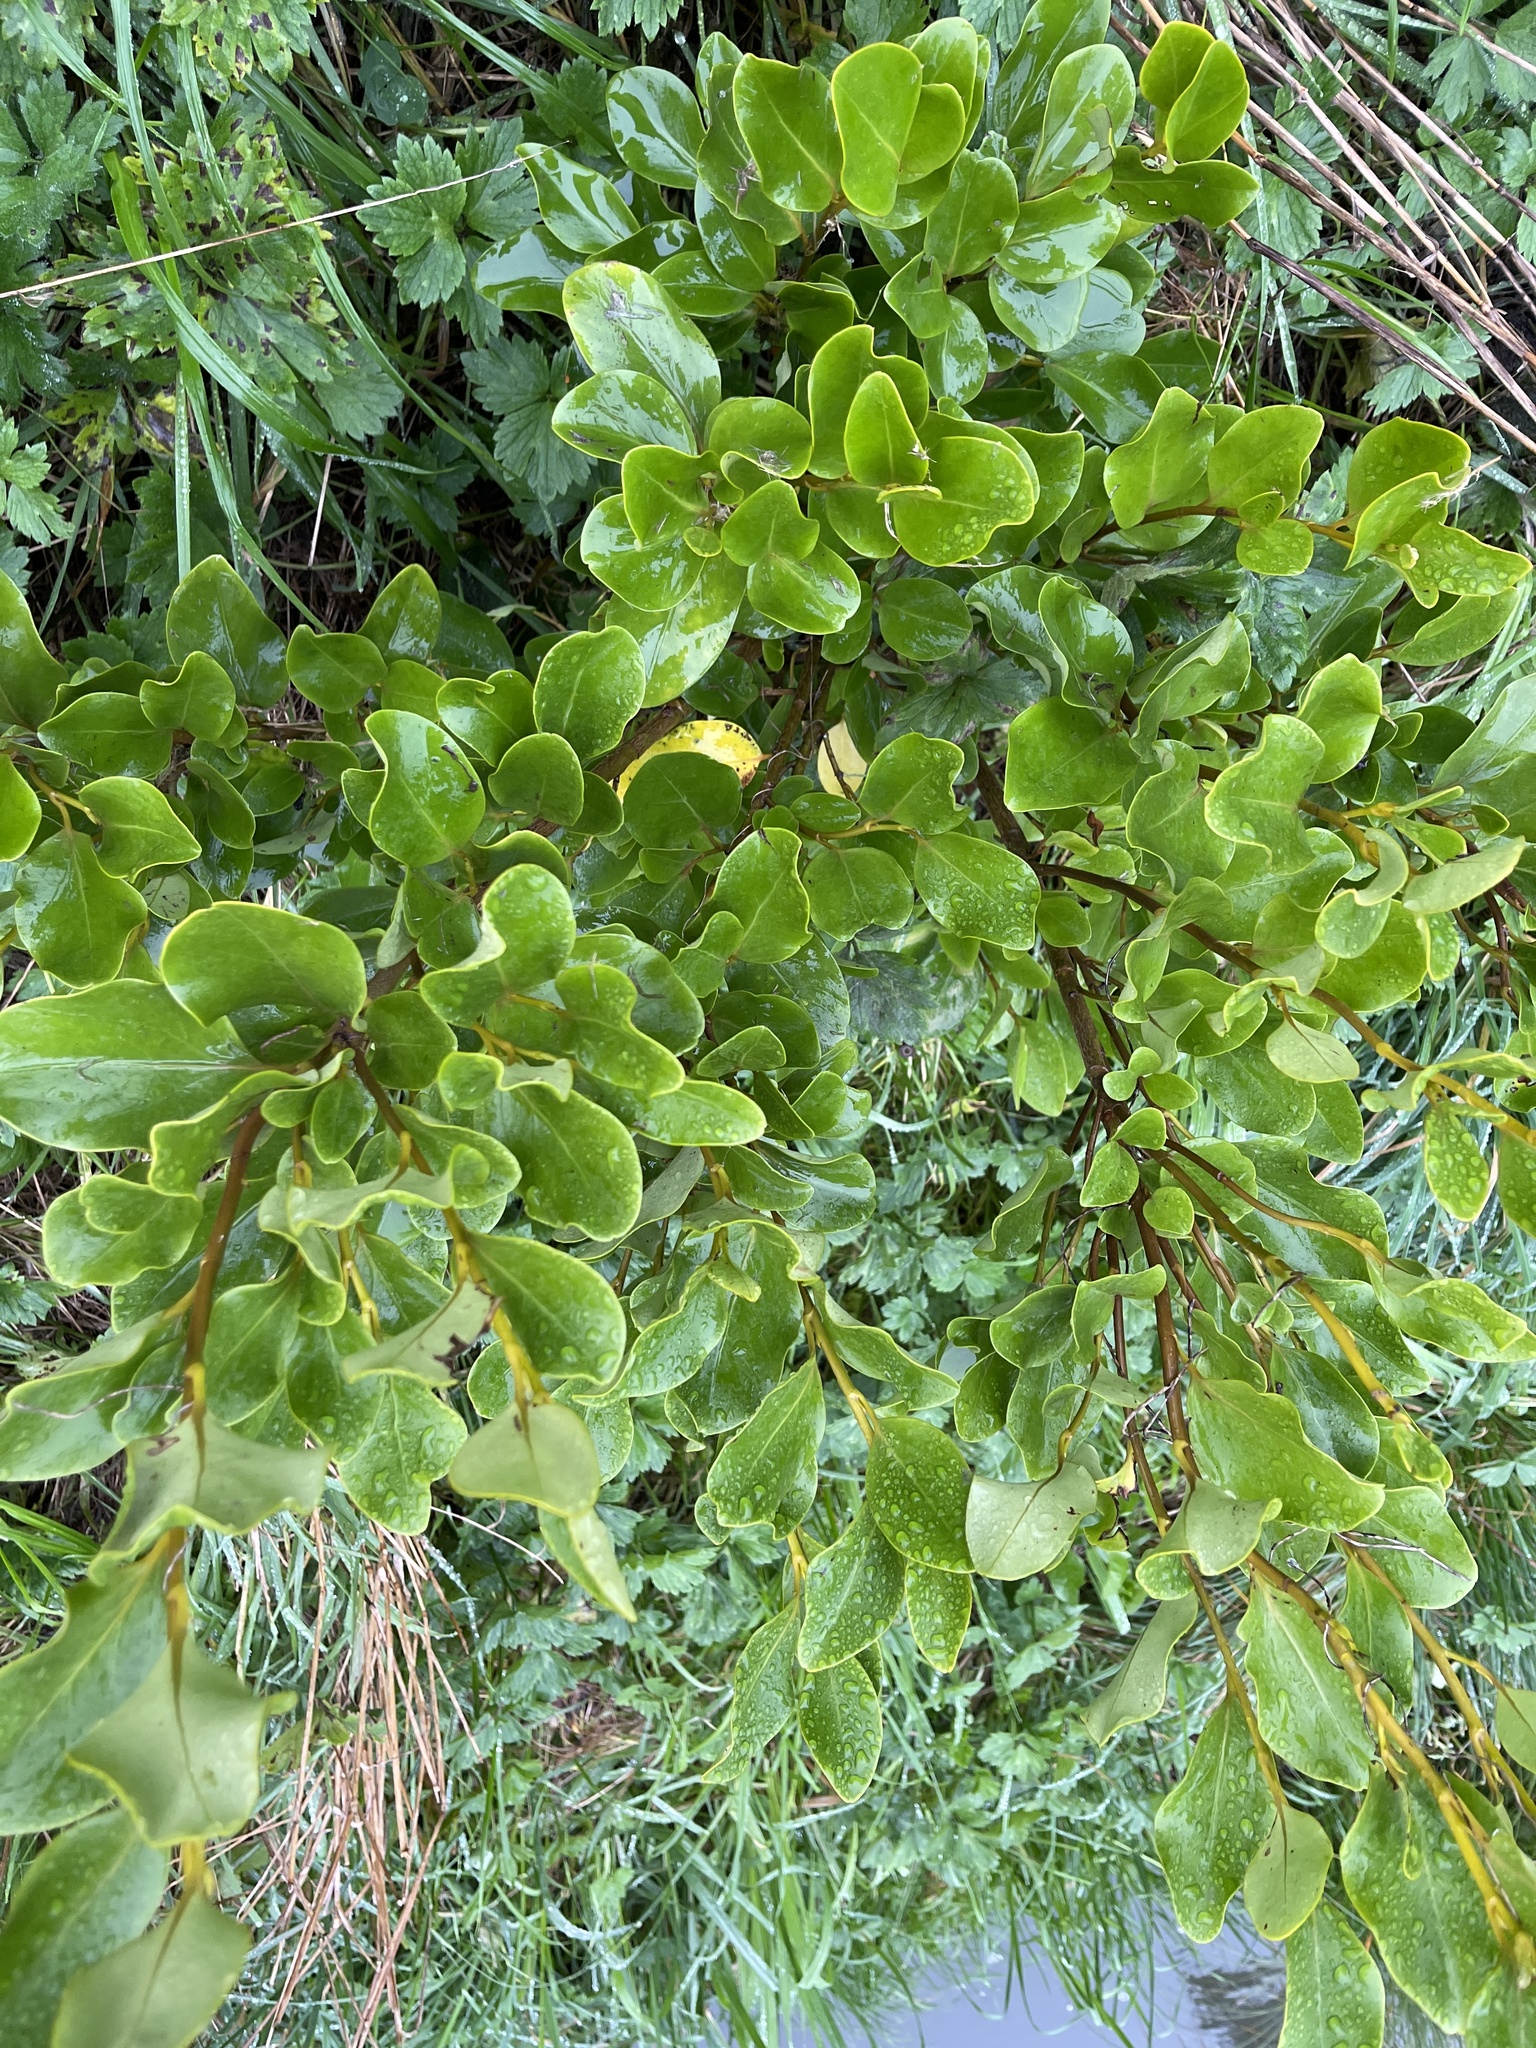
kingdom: Plantae
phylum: Tracheophyta
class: Magnoliopsida
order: Apiales
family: Griseliniaceae
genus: Griselinia
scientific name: Griselinia littoralis
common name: New zealand broadleaf
